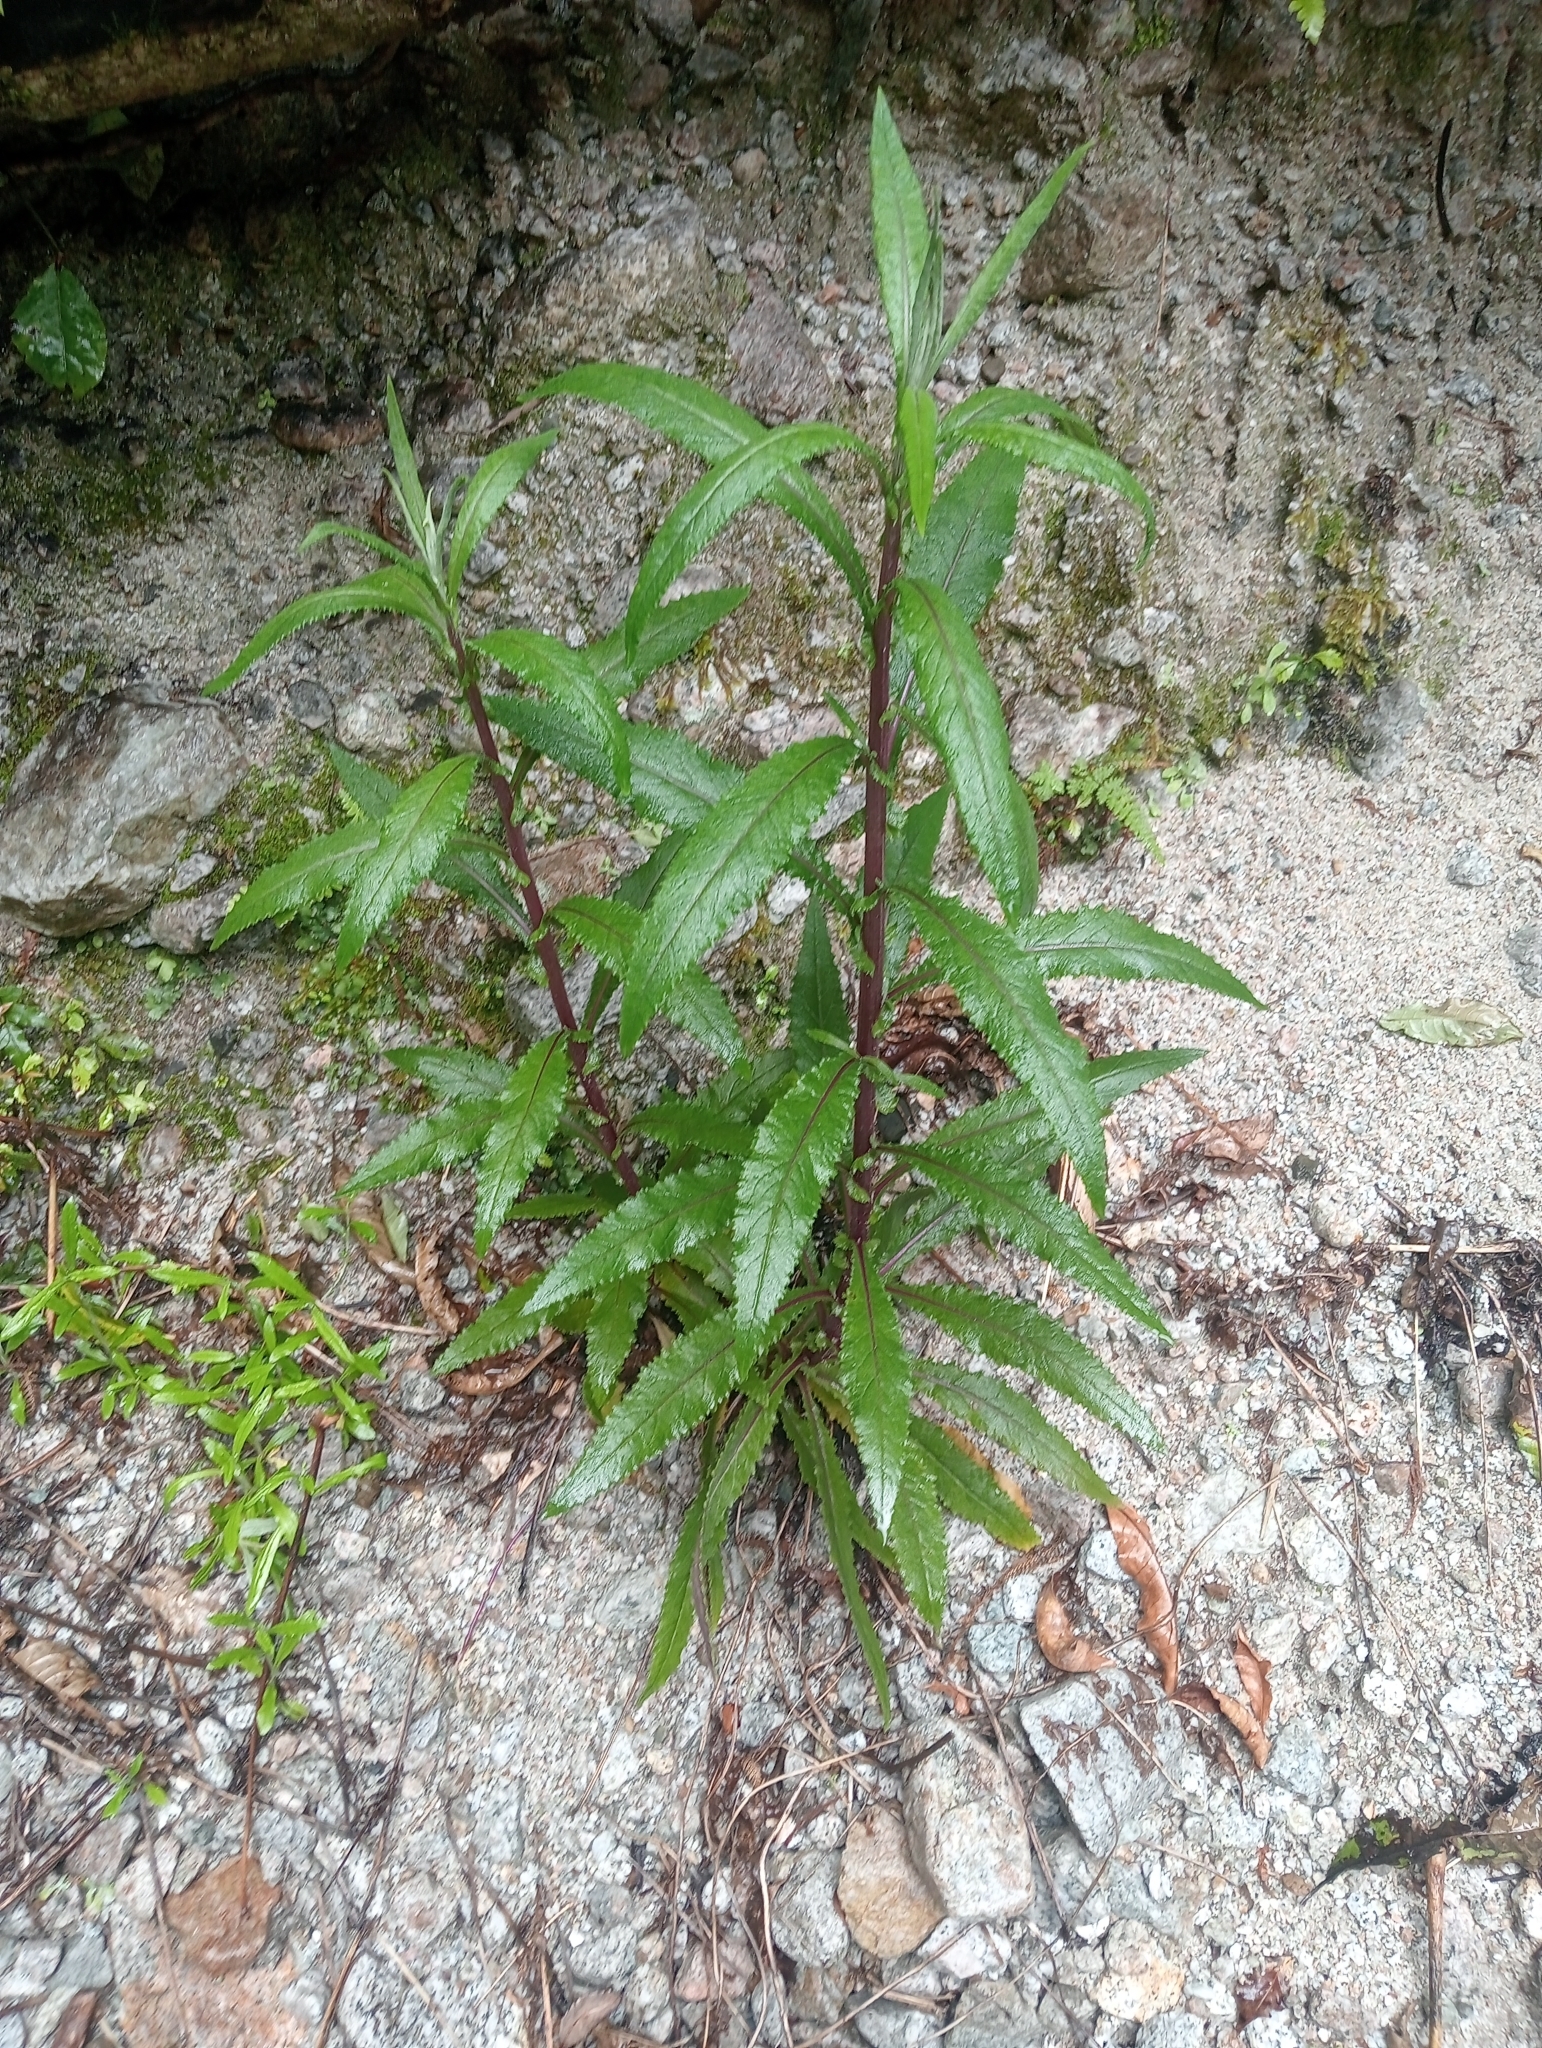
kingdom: Plantae
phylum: Tracheophyta
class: Magnoliopsida
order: Asterales
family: Asteraceae
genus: Senecio
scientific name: Senecio minimus
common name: Toothed fireweed
